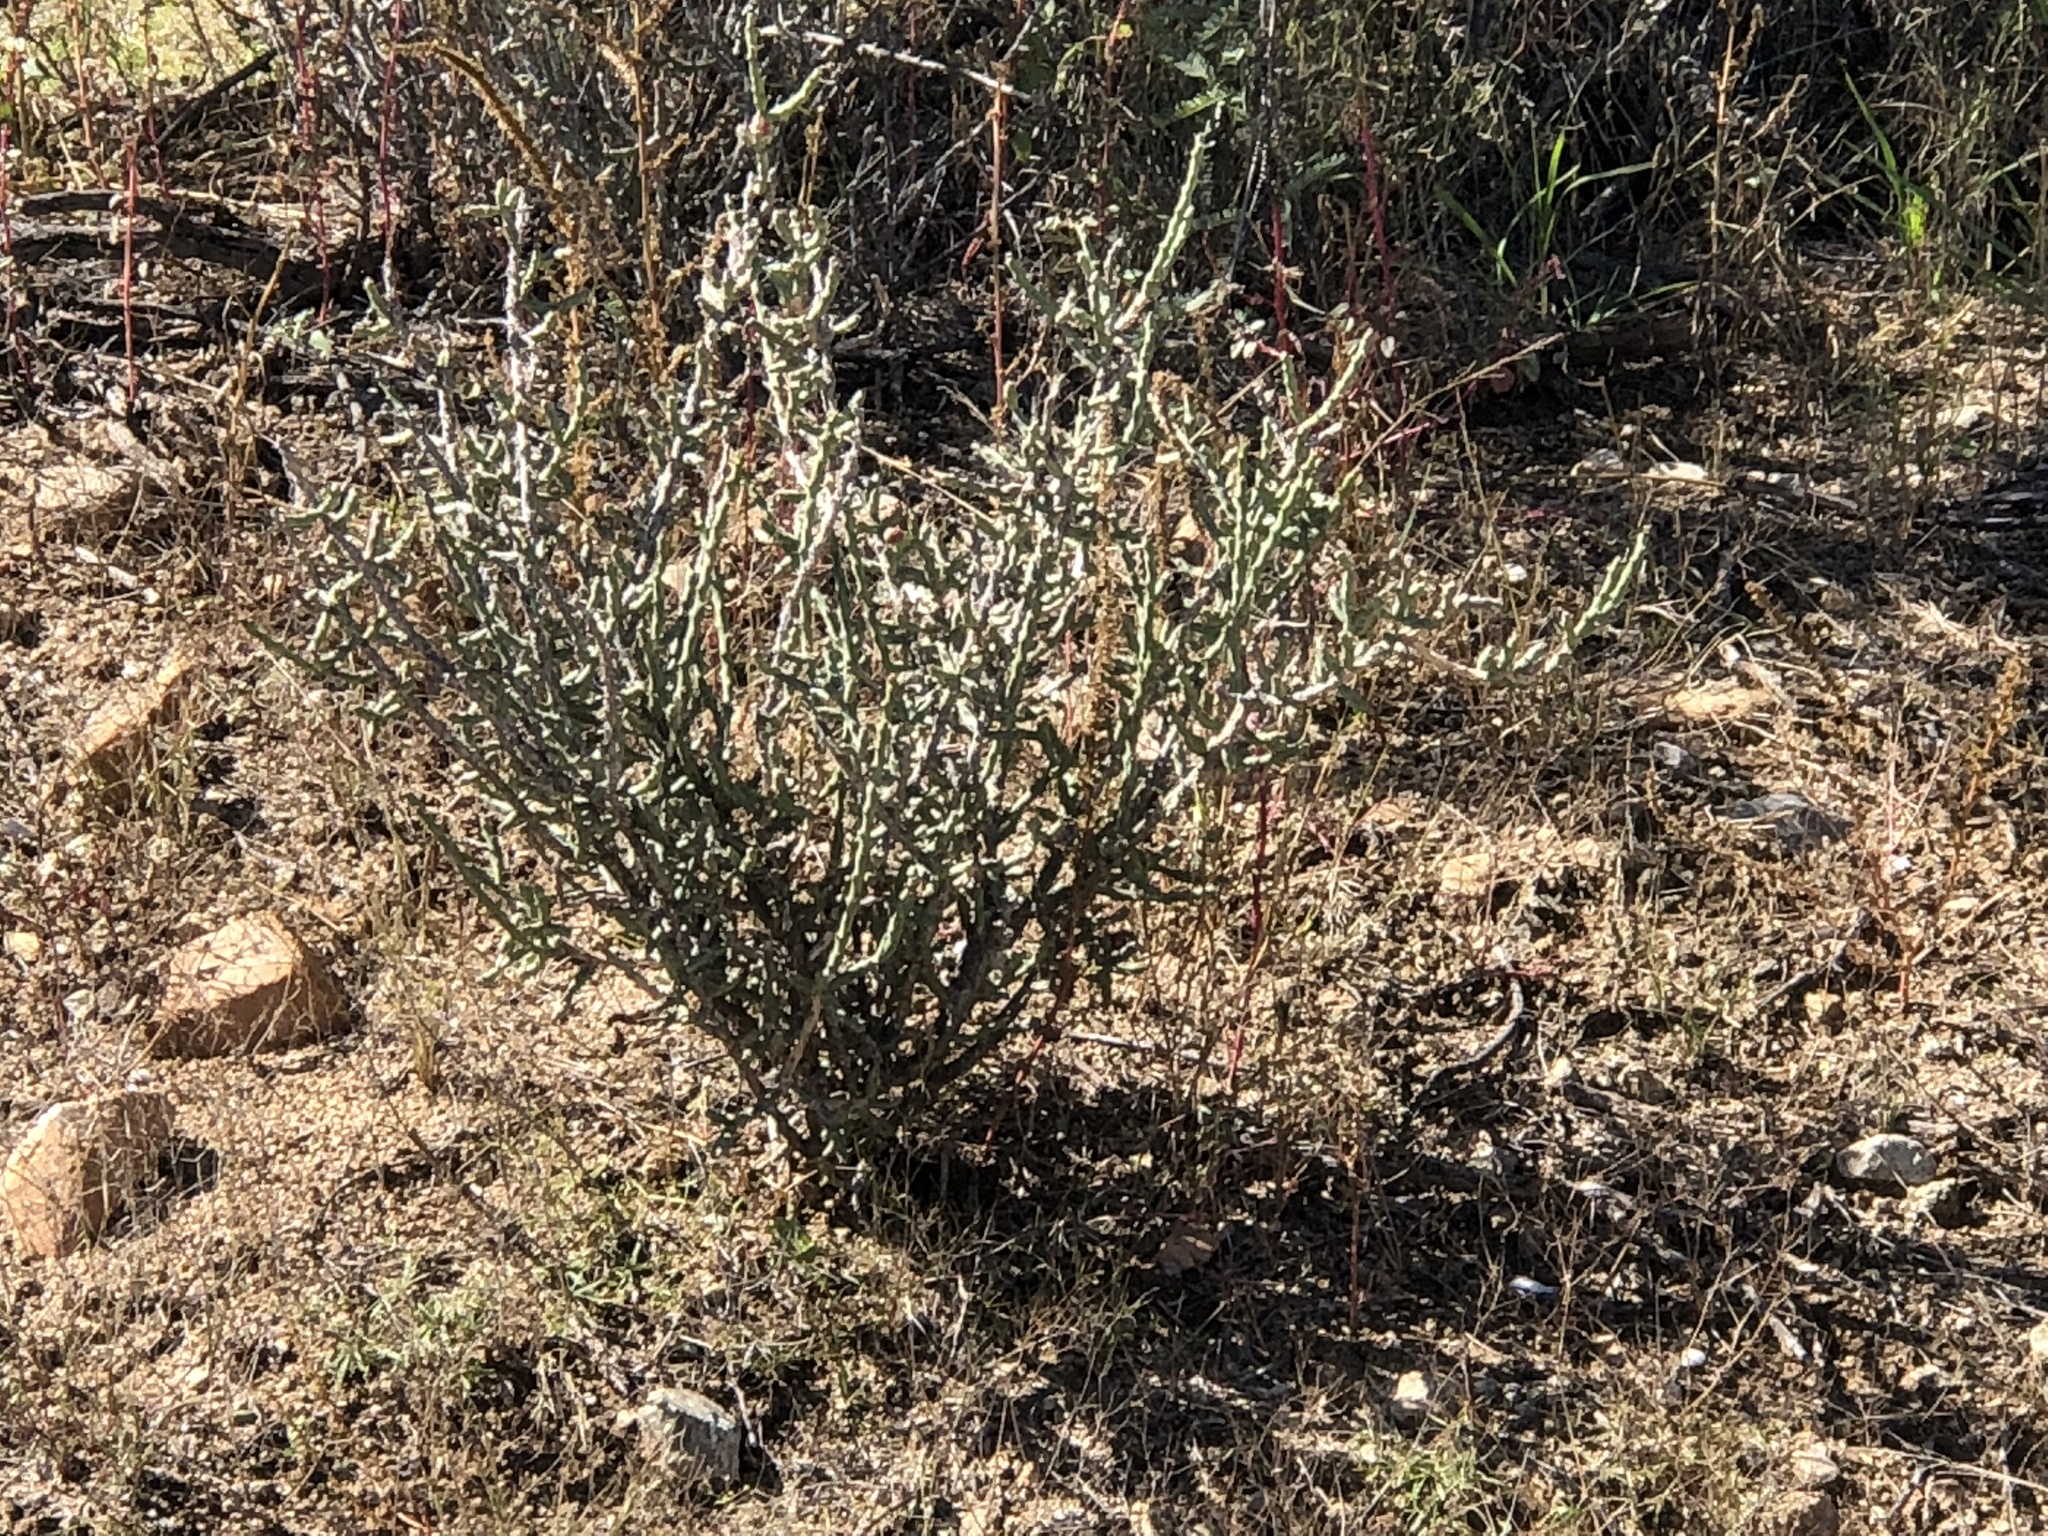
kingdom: Plantae
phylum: Tracheophyta
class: Magnoliopsida
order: Caryophyllales
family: Cactaceae
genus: Cylindropuntia
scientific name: Cylindropuntia leptocaulis
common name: Christmas cactus
